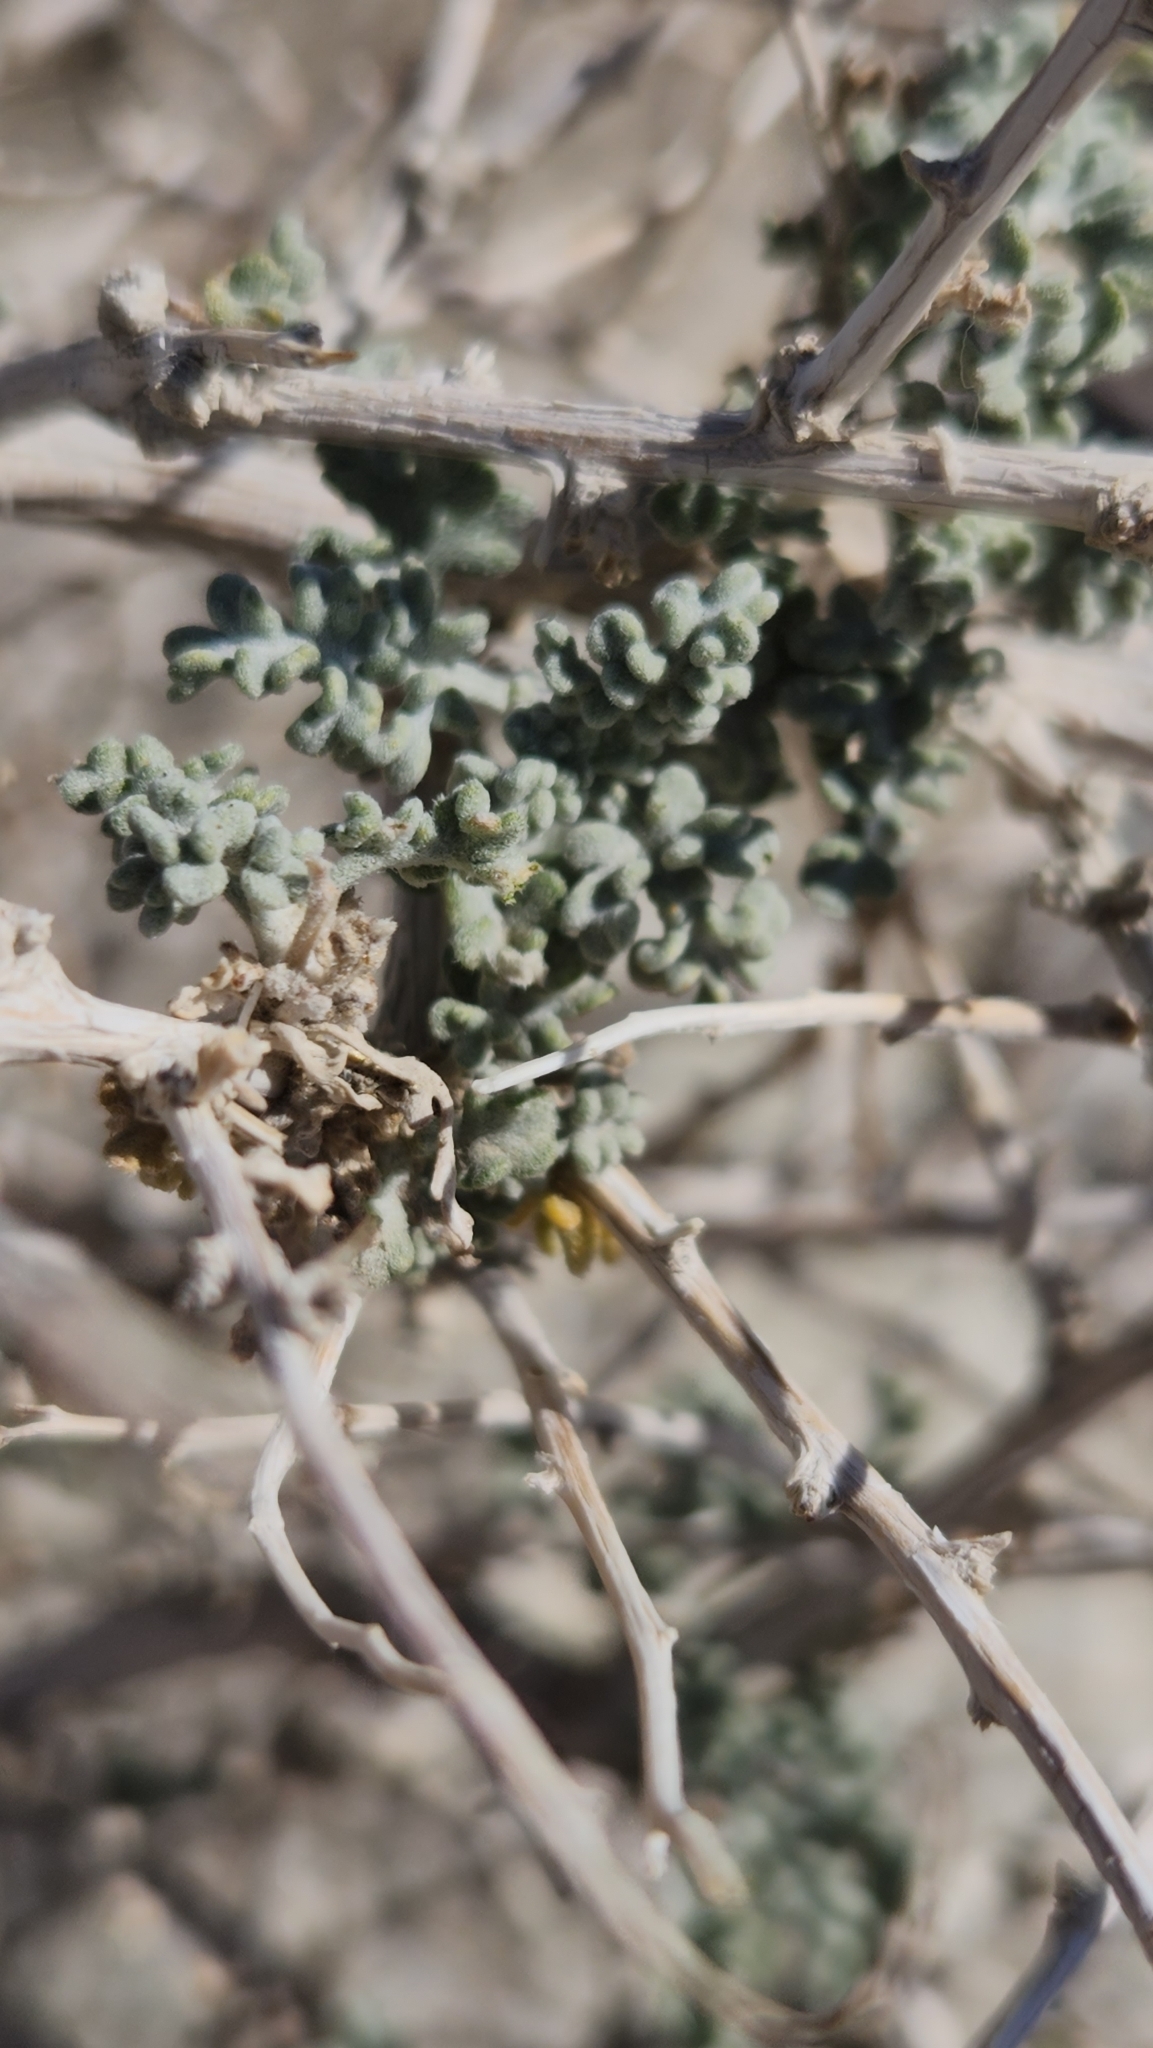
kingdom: Plantae
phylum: Tracheophyta
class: Magnoliopsida
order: Asterales
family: Asteraceae
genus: Ambrosia
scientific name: Ambrosia dumosa
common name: Bur-sage
